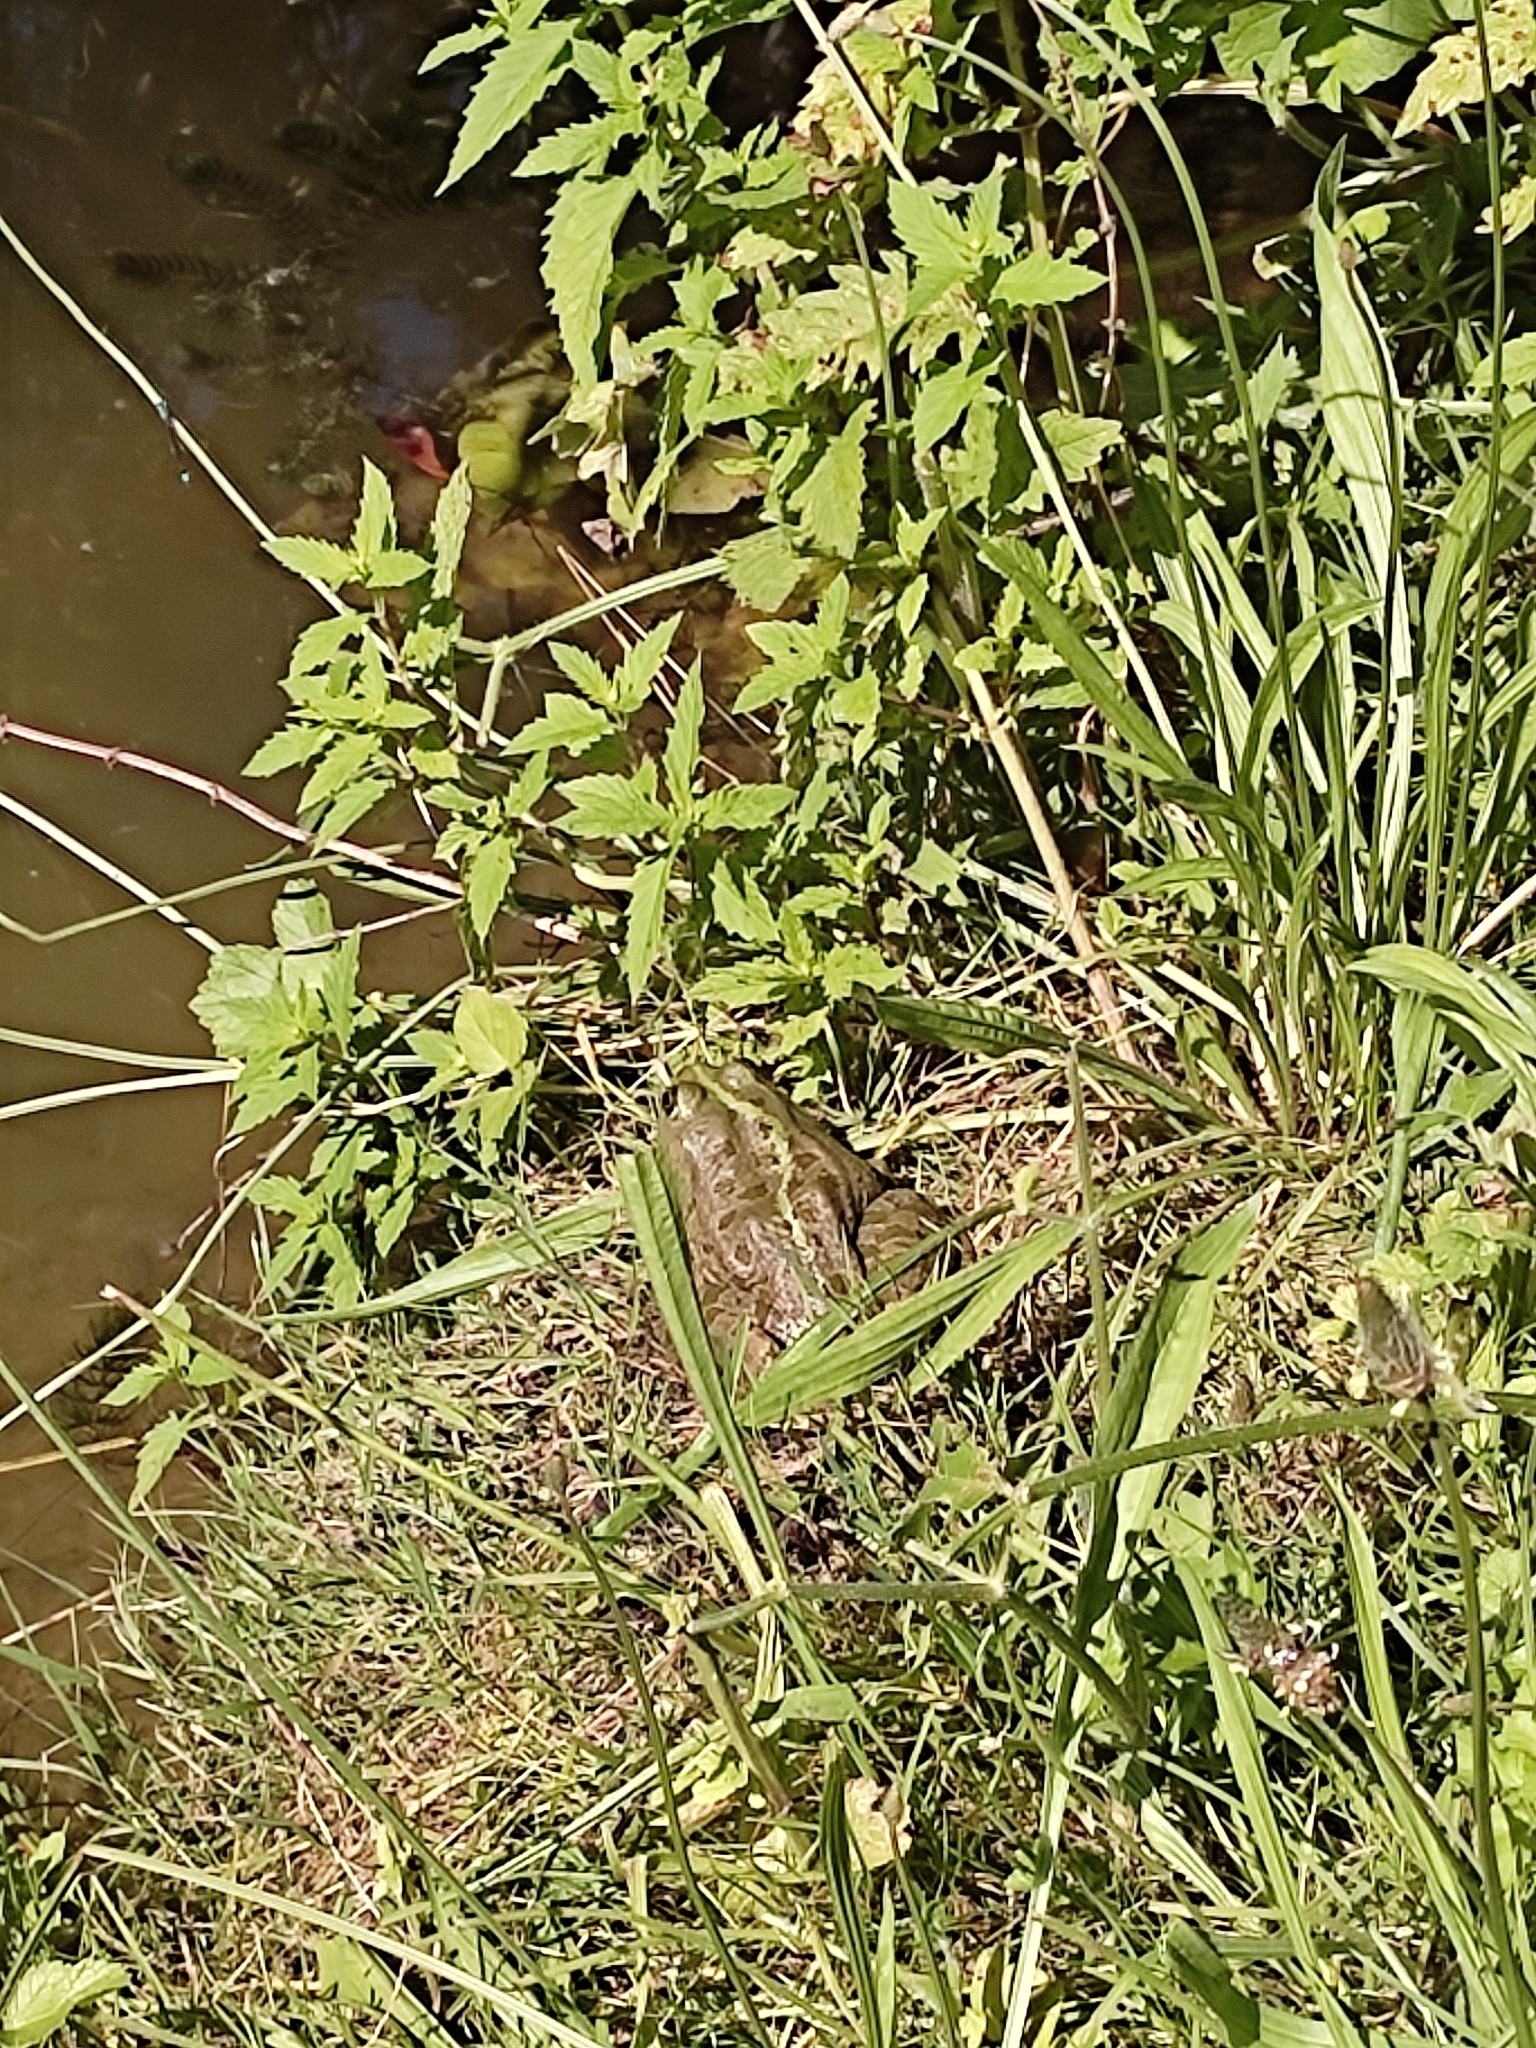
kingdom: Animalia
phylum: Chordata
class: Amphibia
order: Anura
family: Ranidae
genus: Pelophylax
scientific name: Pelophylax ridibundus
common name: Marsh frog
